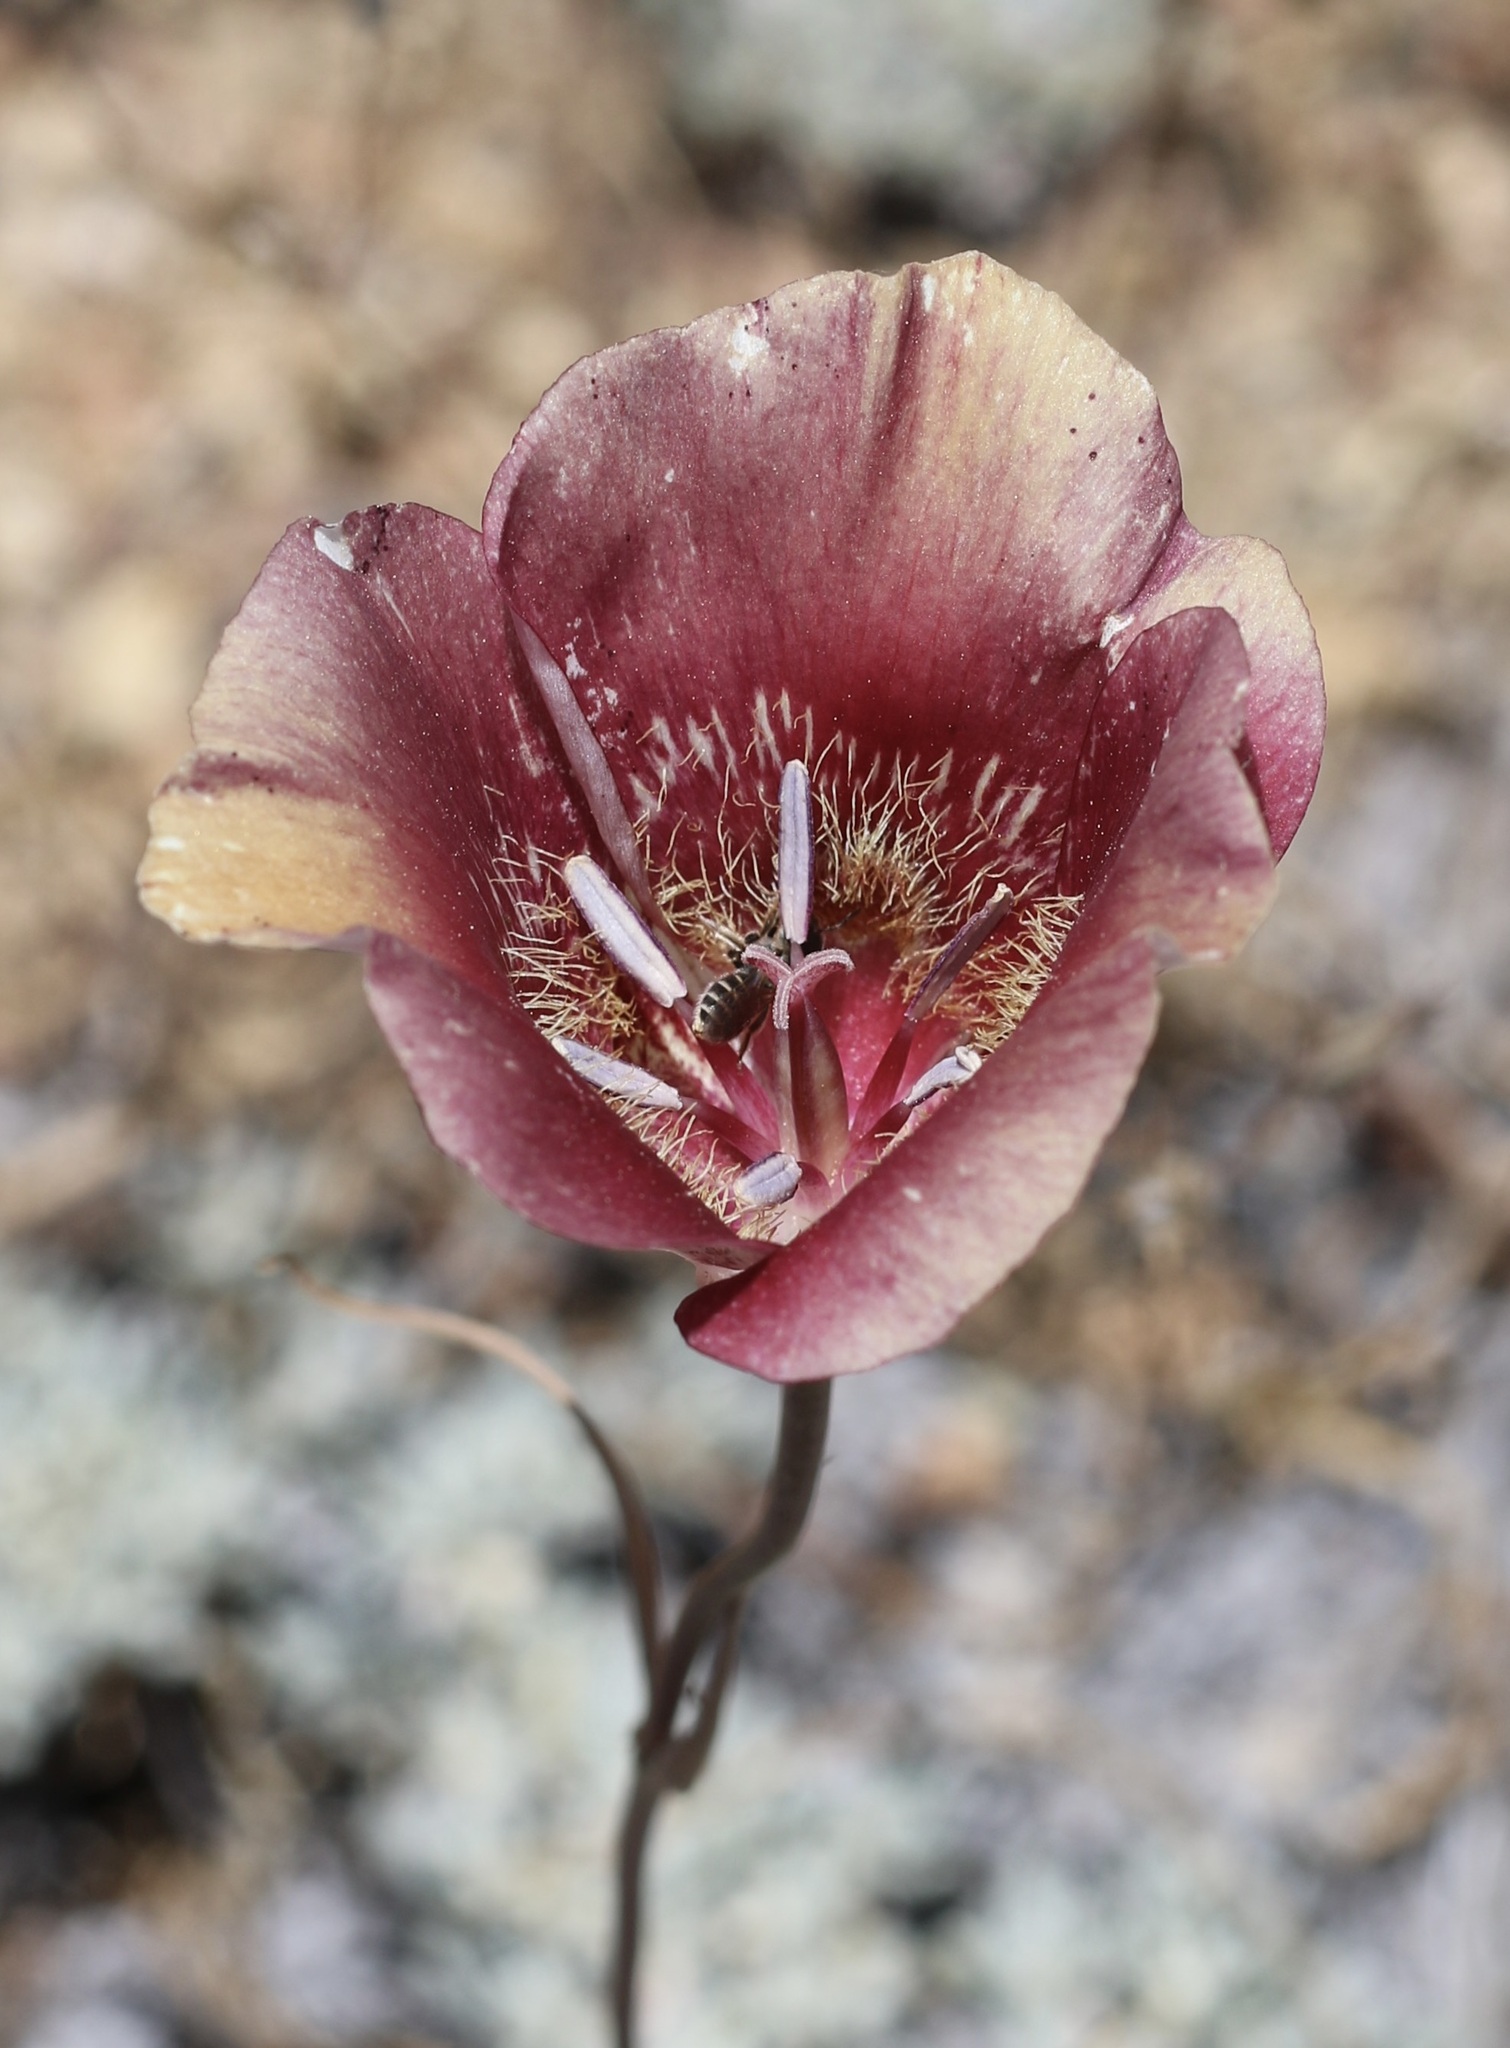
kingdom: Plantae
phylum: Tracheophyta
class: Liliopsida
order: Liliales
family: Liliaceae
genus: Calochortus
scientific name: Calochortus venustus
